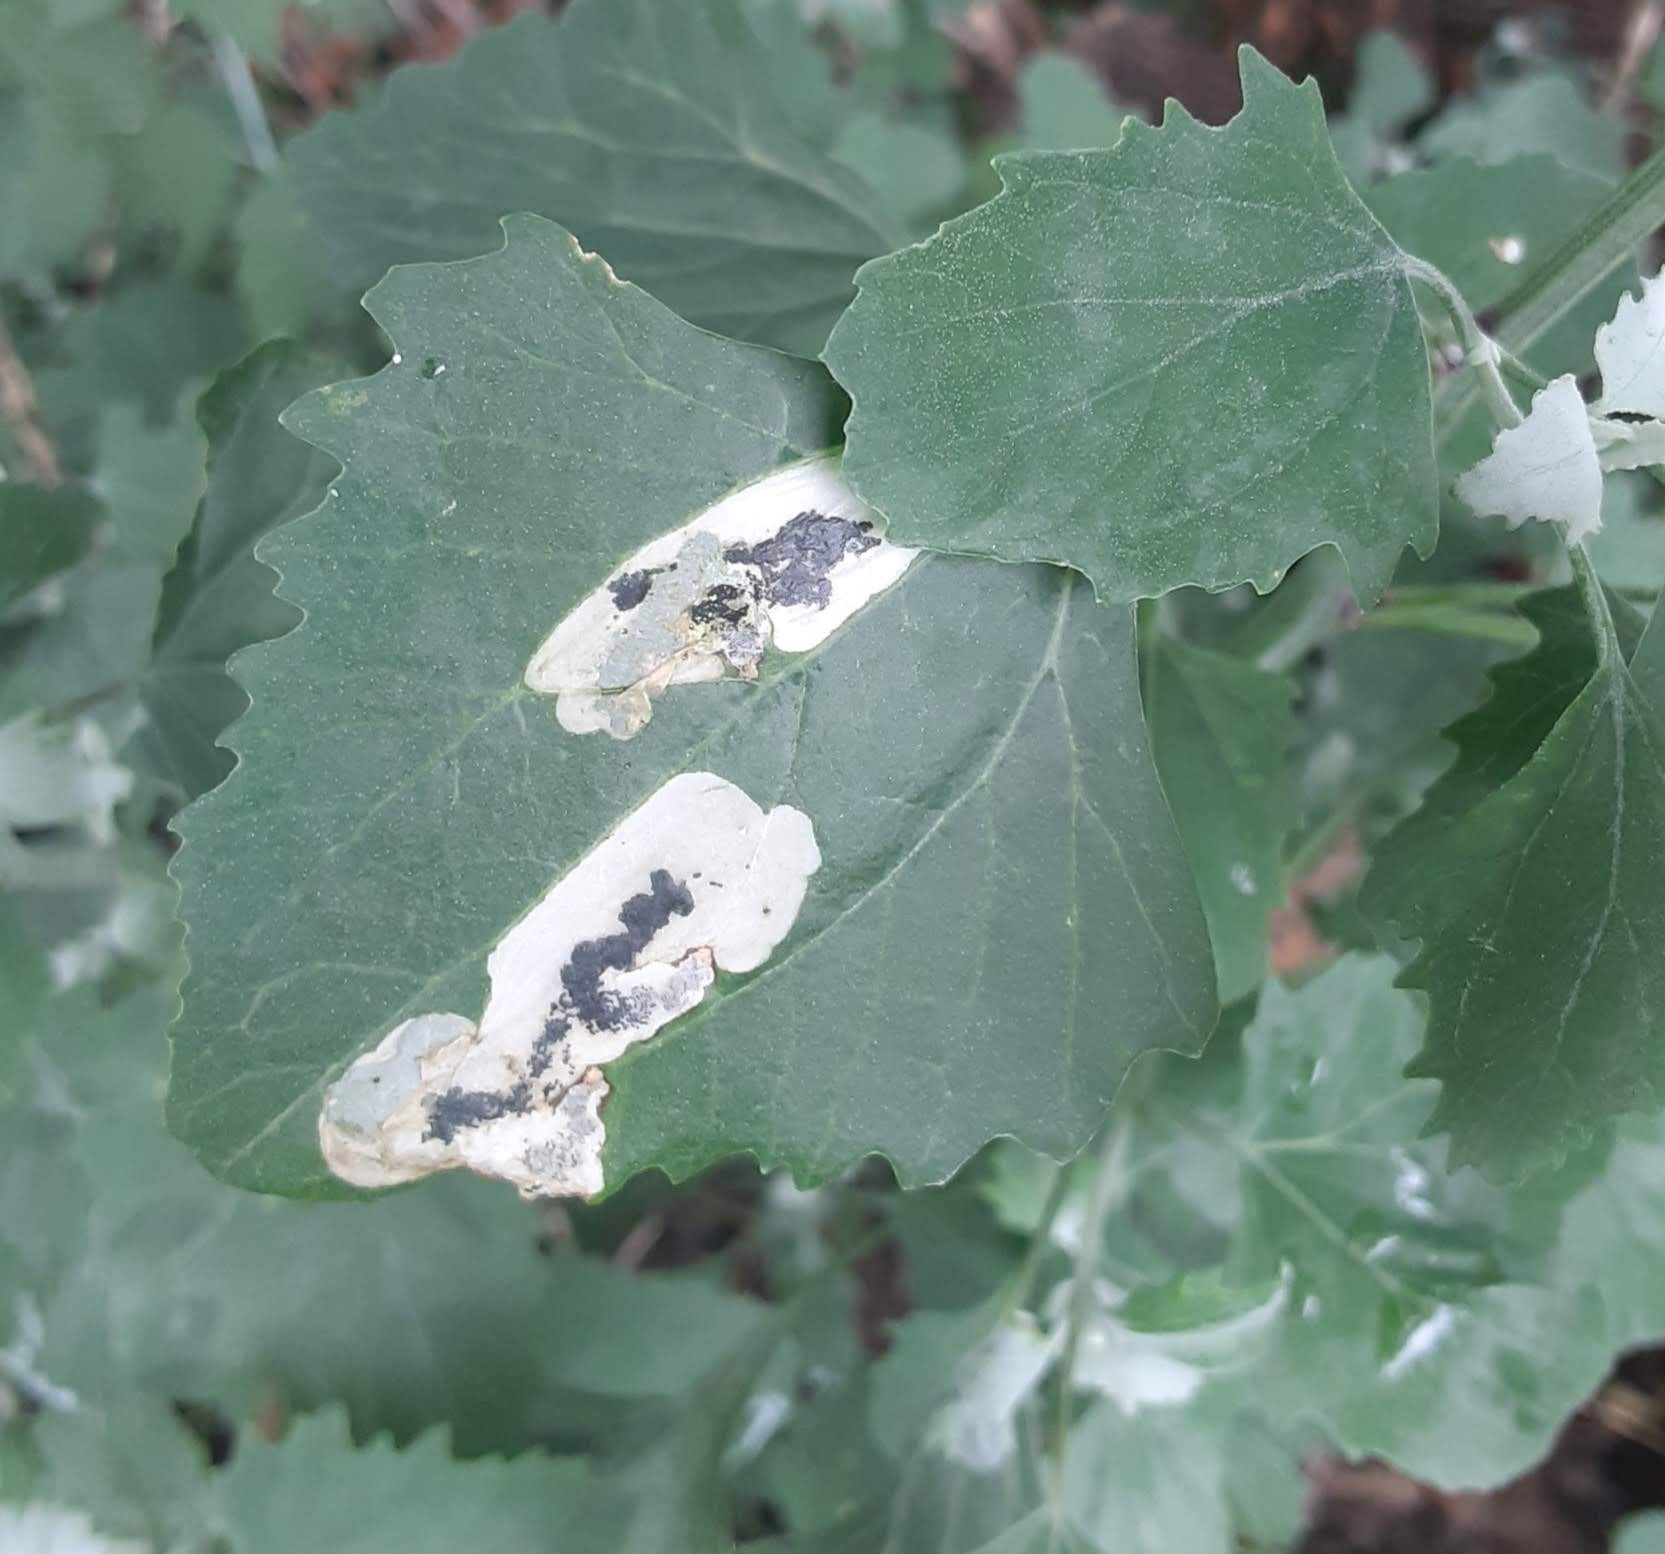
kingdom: Animalia
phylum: Arthropoda
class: Insecta
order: Lepidoptera
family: Gelechiidae
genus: Chrysoesthia
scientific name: Chrysoesthia sexguttella
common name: Moth
